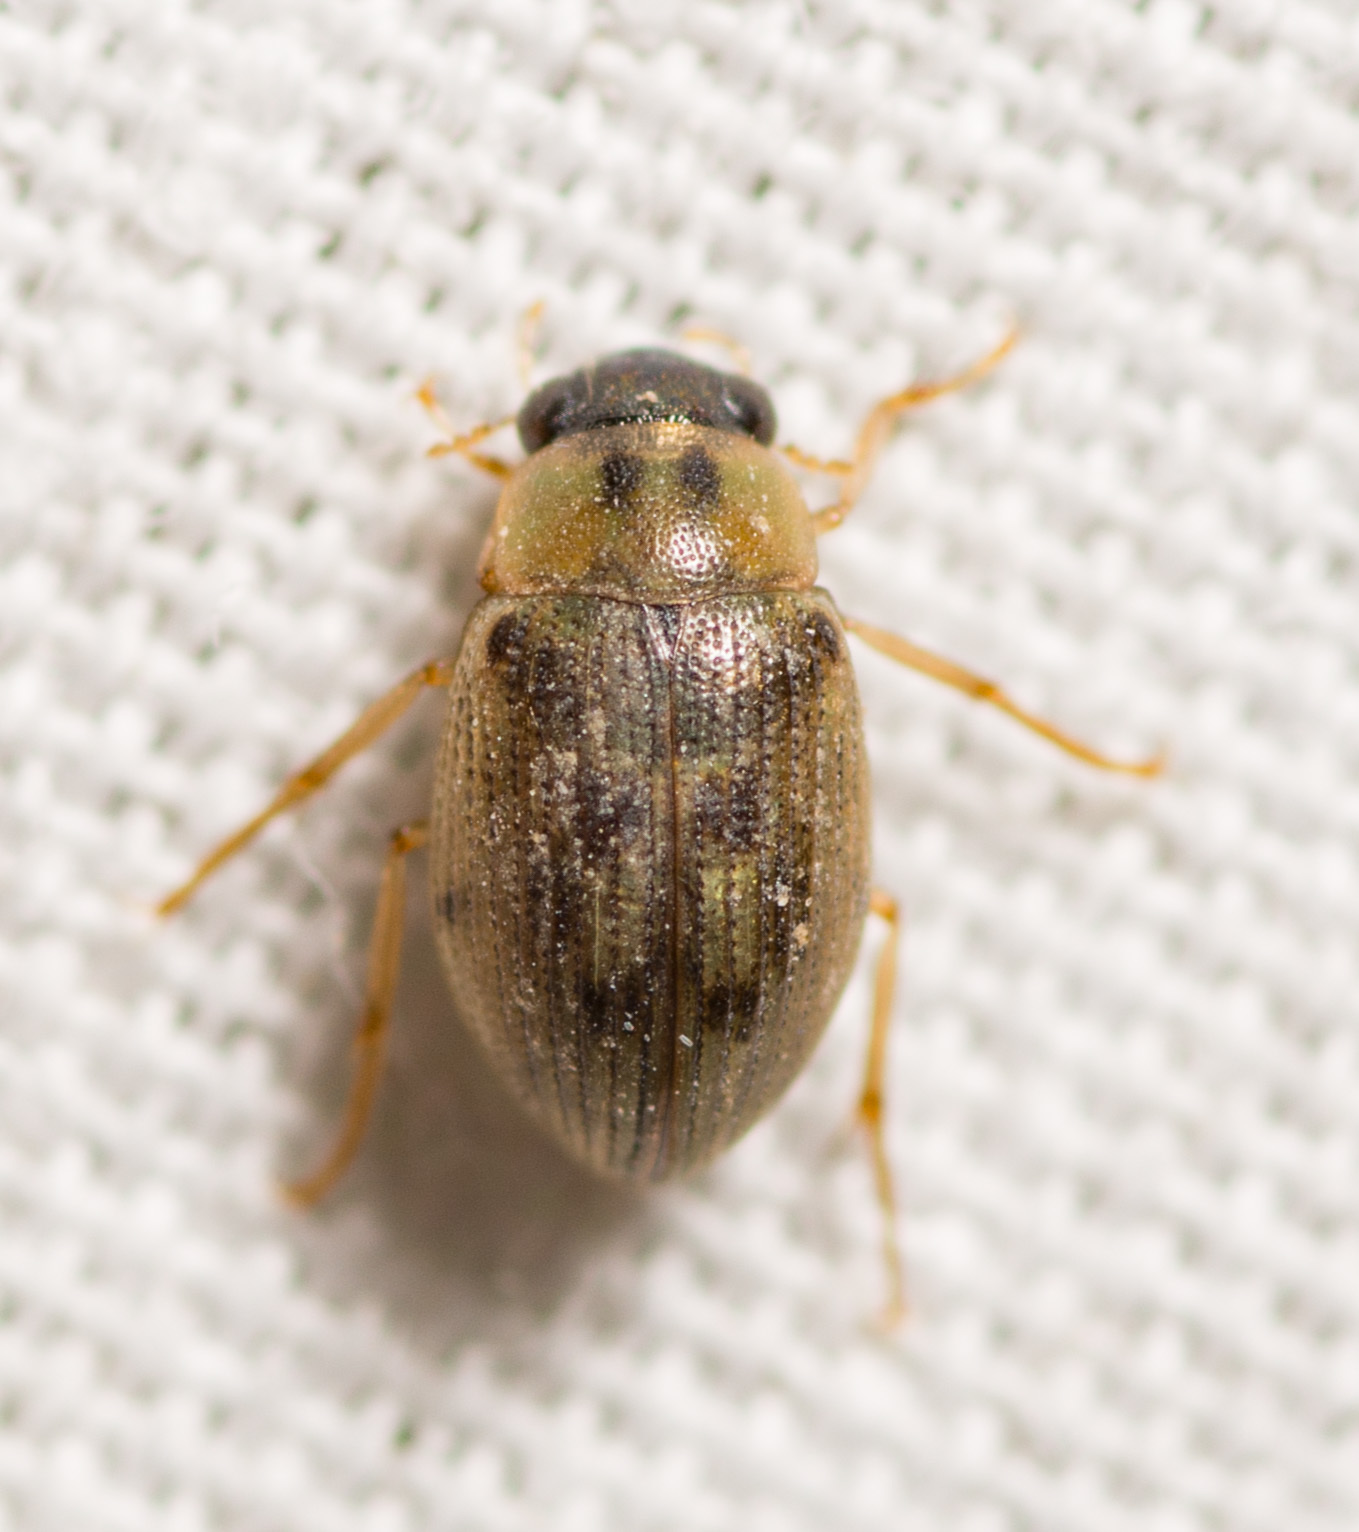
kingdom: Animalia
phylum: Arthropoda
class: Insecta
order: Coleoptera
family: Hydrophilidae
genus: Berosus
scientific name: Berosus
